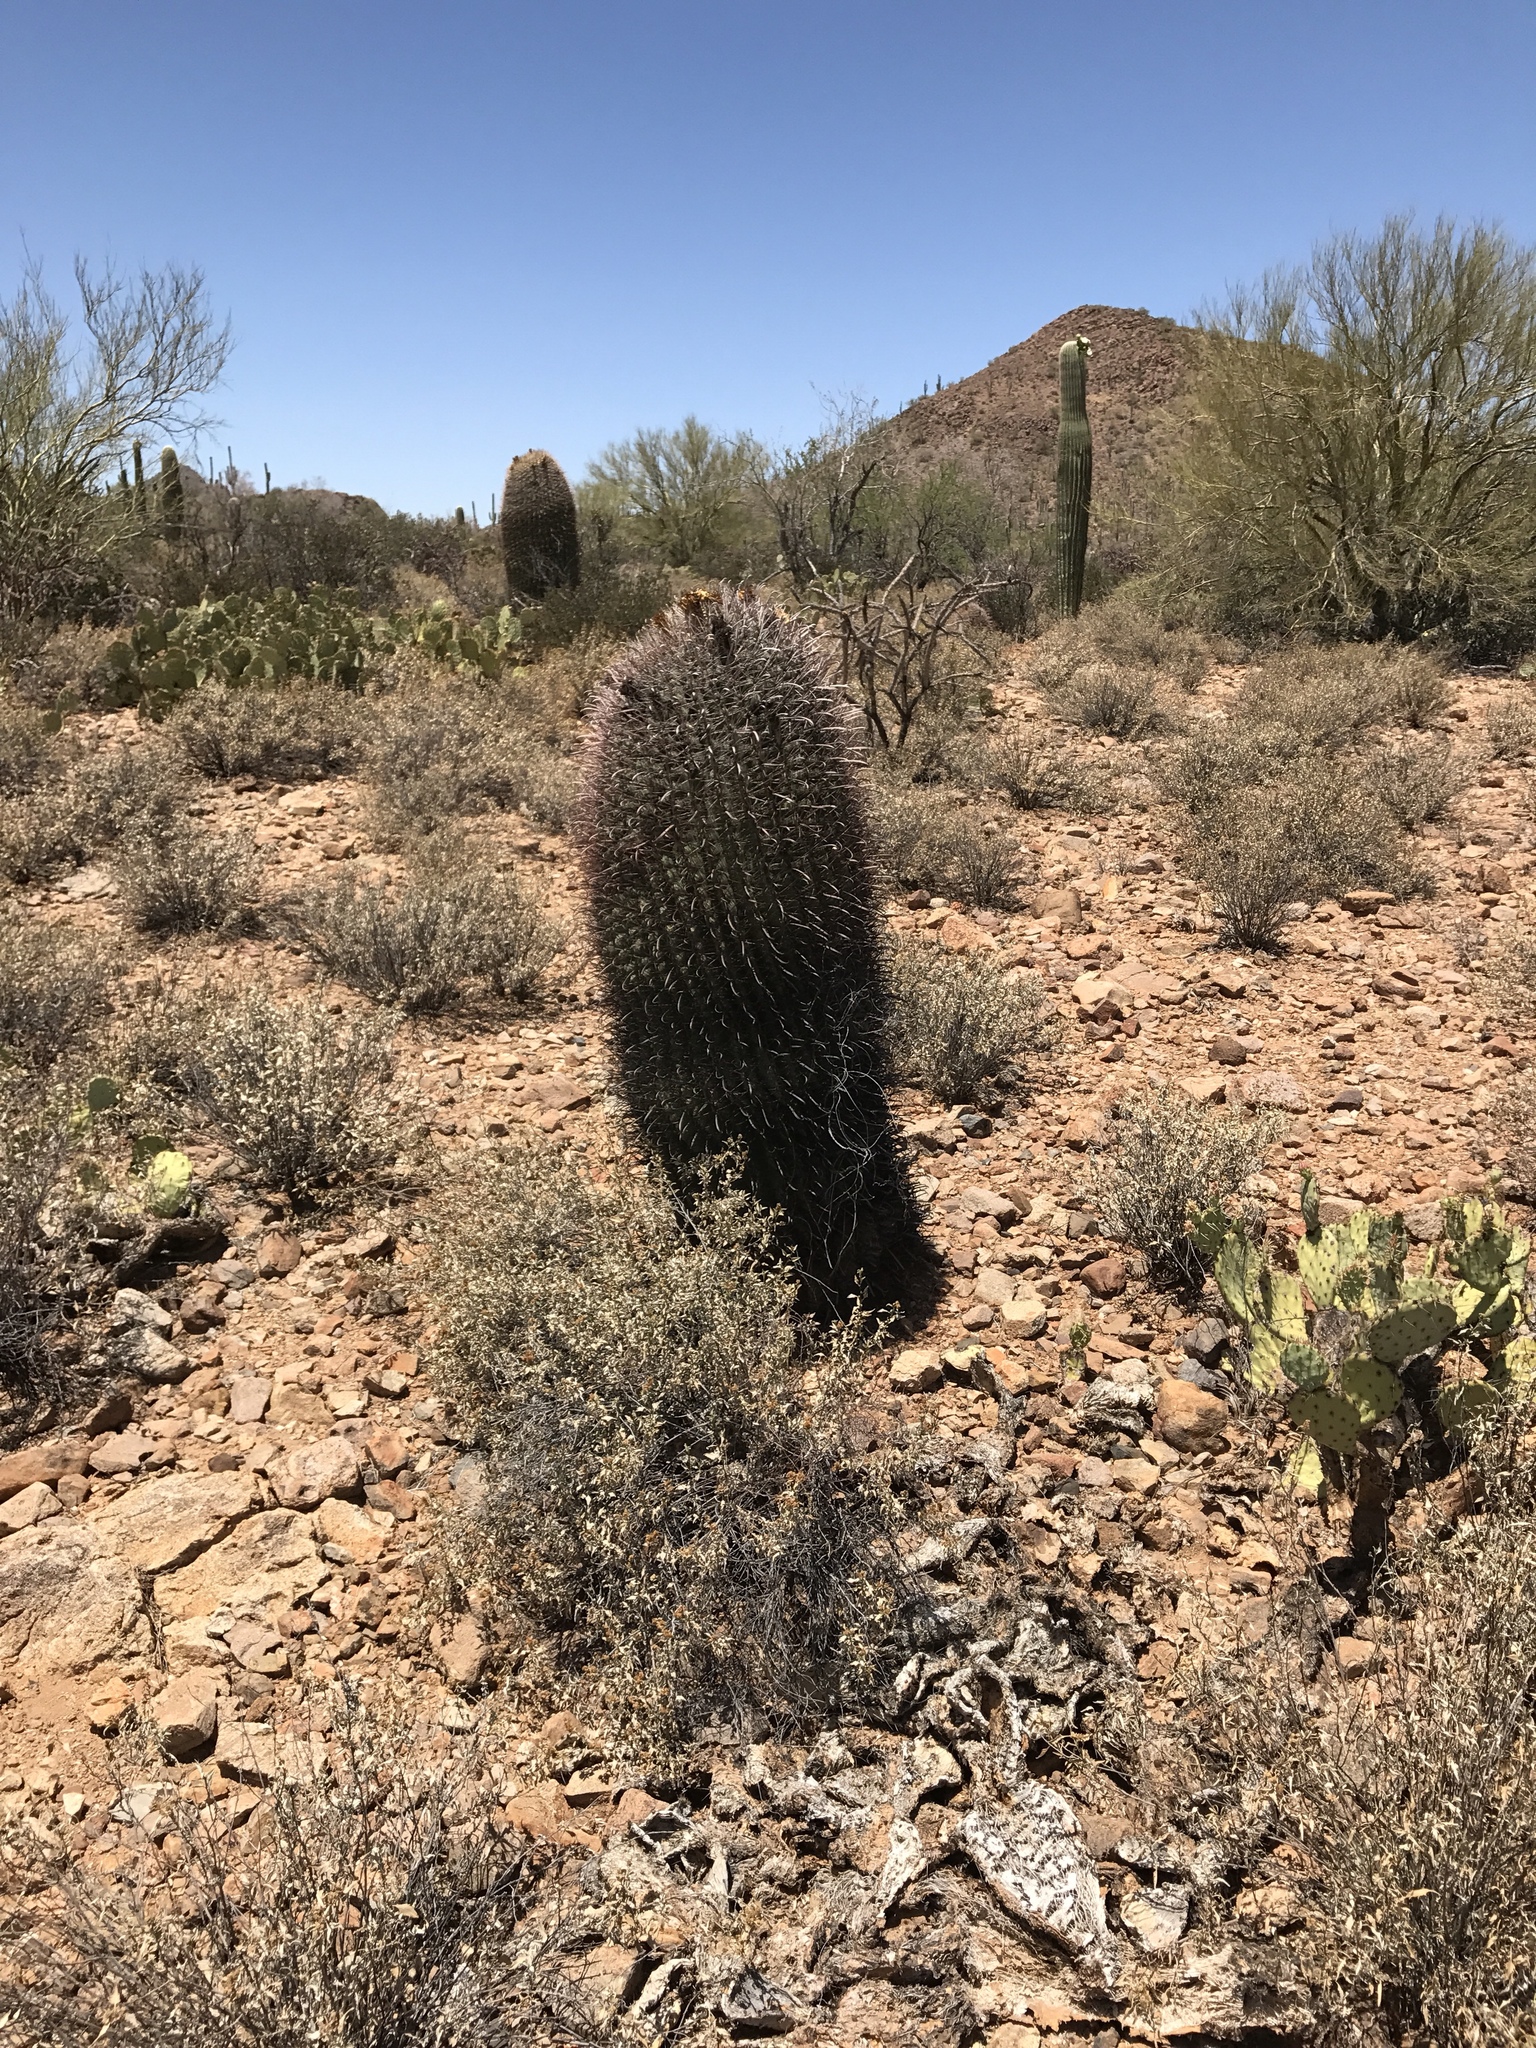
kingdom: Plantae
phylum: Tracheophyta
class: Magnoliopsida
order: Caryophyllales
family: Cactaceae
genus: Ferocactus
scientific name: Ferocactus wislizeni
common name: Candy barrel cactus
